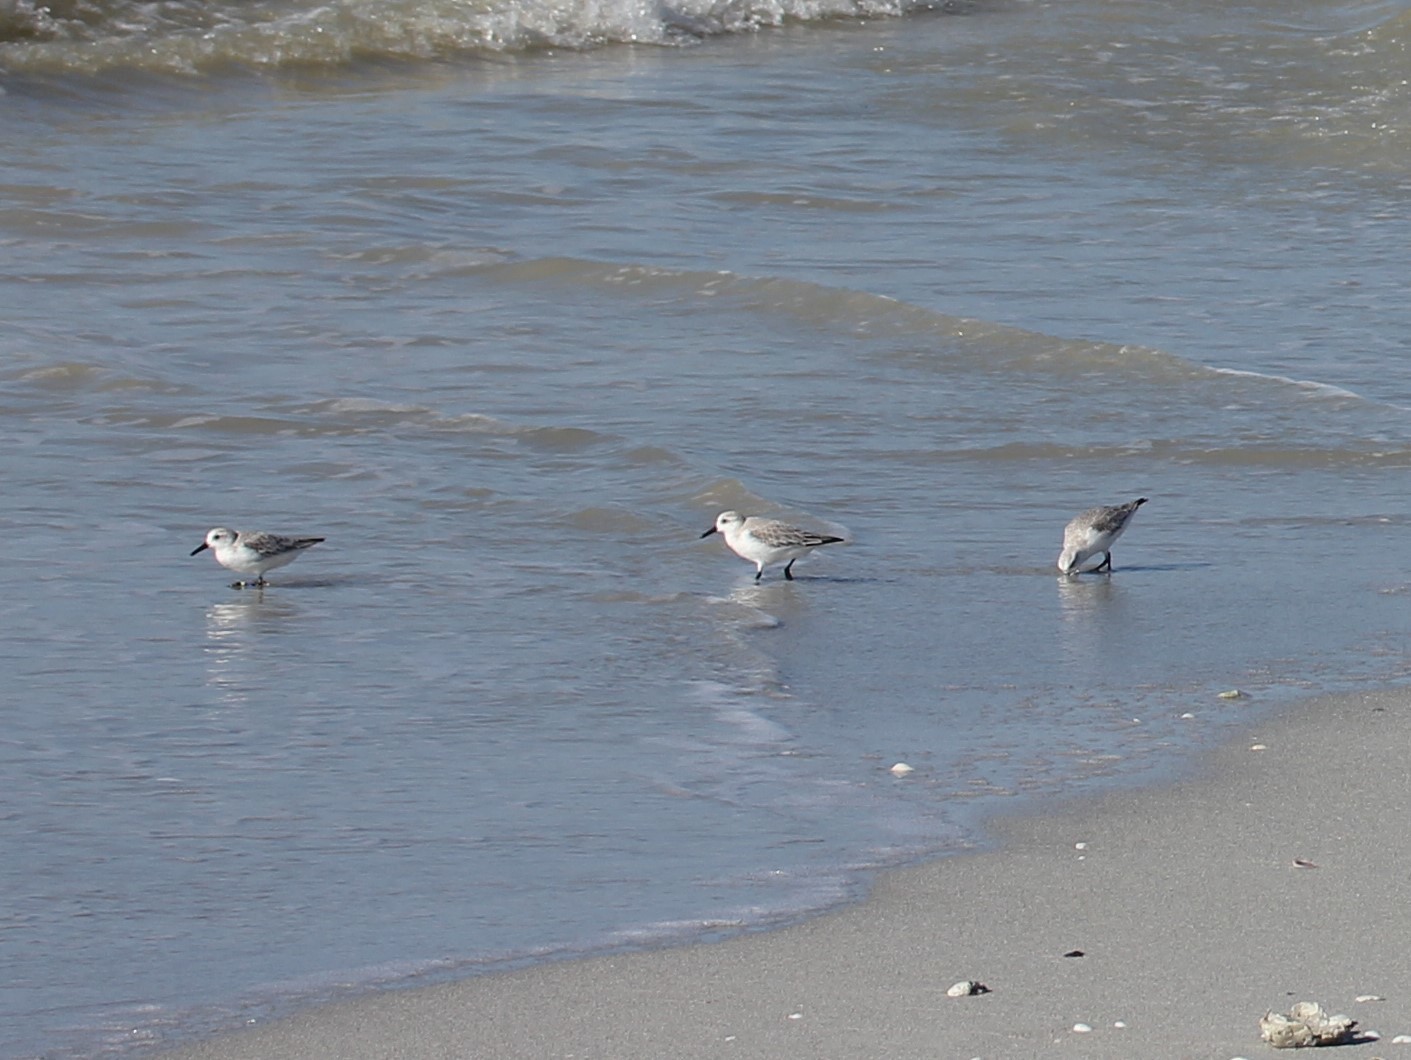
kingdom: Animalia
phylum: Chordata
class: Aves
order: Charadriiformes
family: Scolopacidae
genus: Calidris
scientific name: Calidris alba
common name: Sanderling
